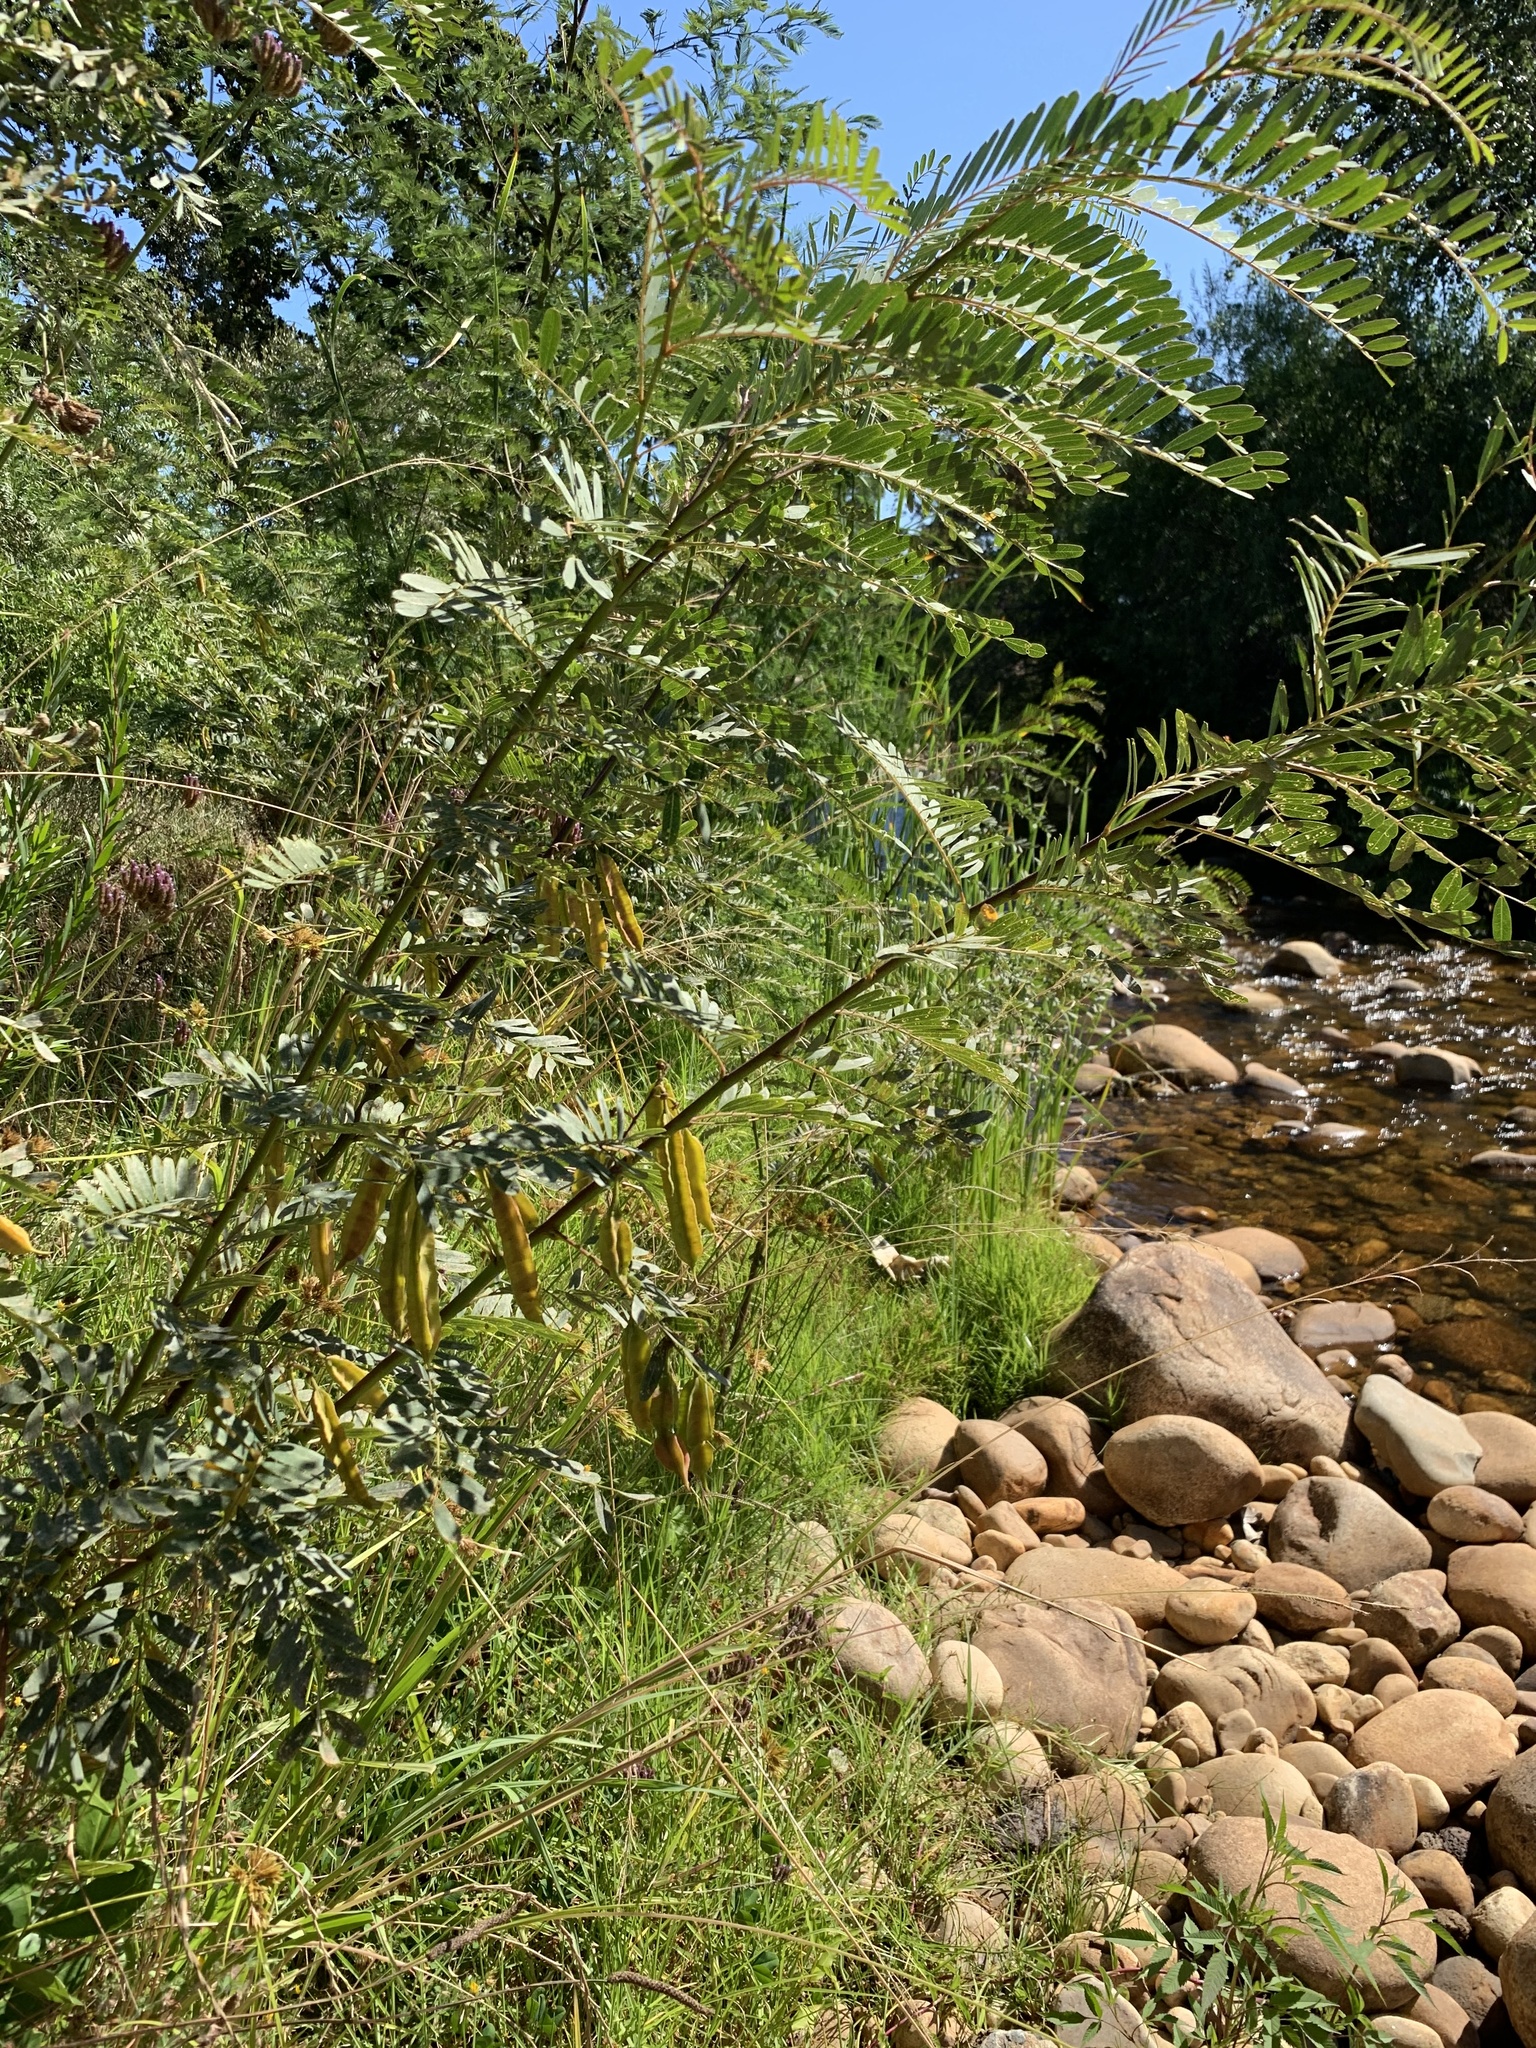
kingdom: Plantae
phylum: Tracheophyta
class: Magnoliopsida
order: Fabales
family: Fabaceae
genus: Sesbania
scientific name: Sesbania punicea
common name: Rattlebox
